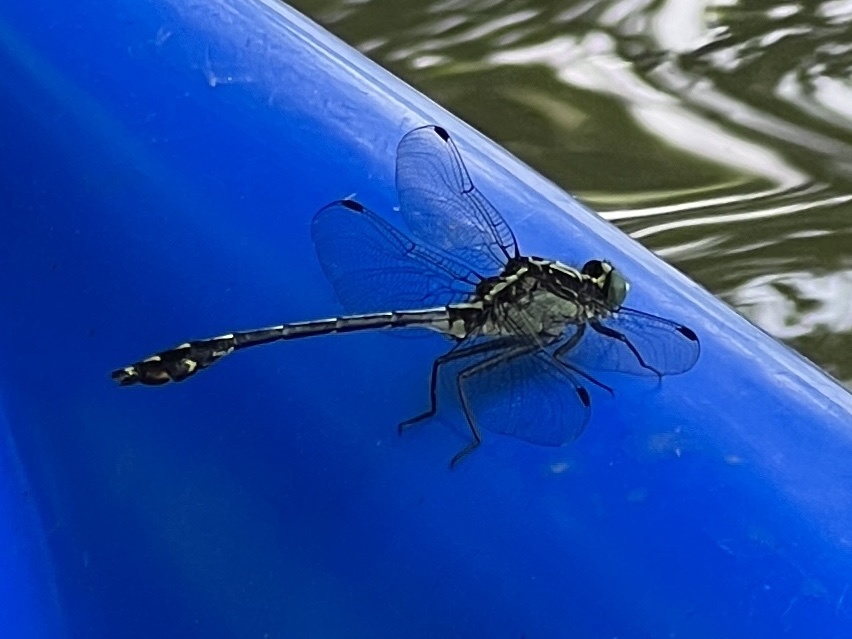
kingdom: Animalia
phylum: Arthropoda
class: Insecta
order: Odonata
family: Gomphidae
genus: Dromogomphus
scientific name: Dromogomphus spinosus
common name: Black-shouldered spinyleg
